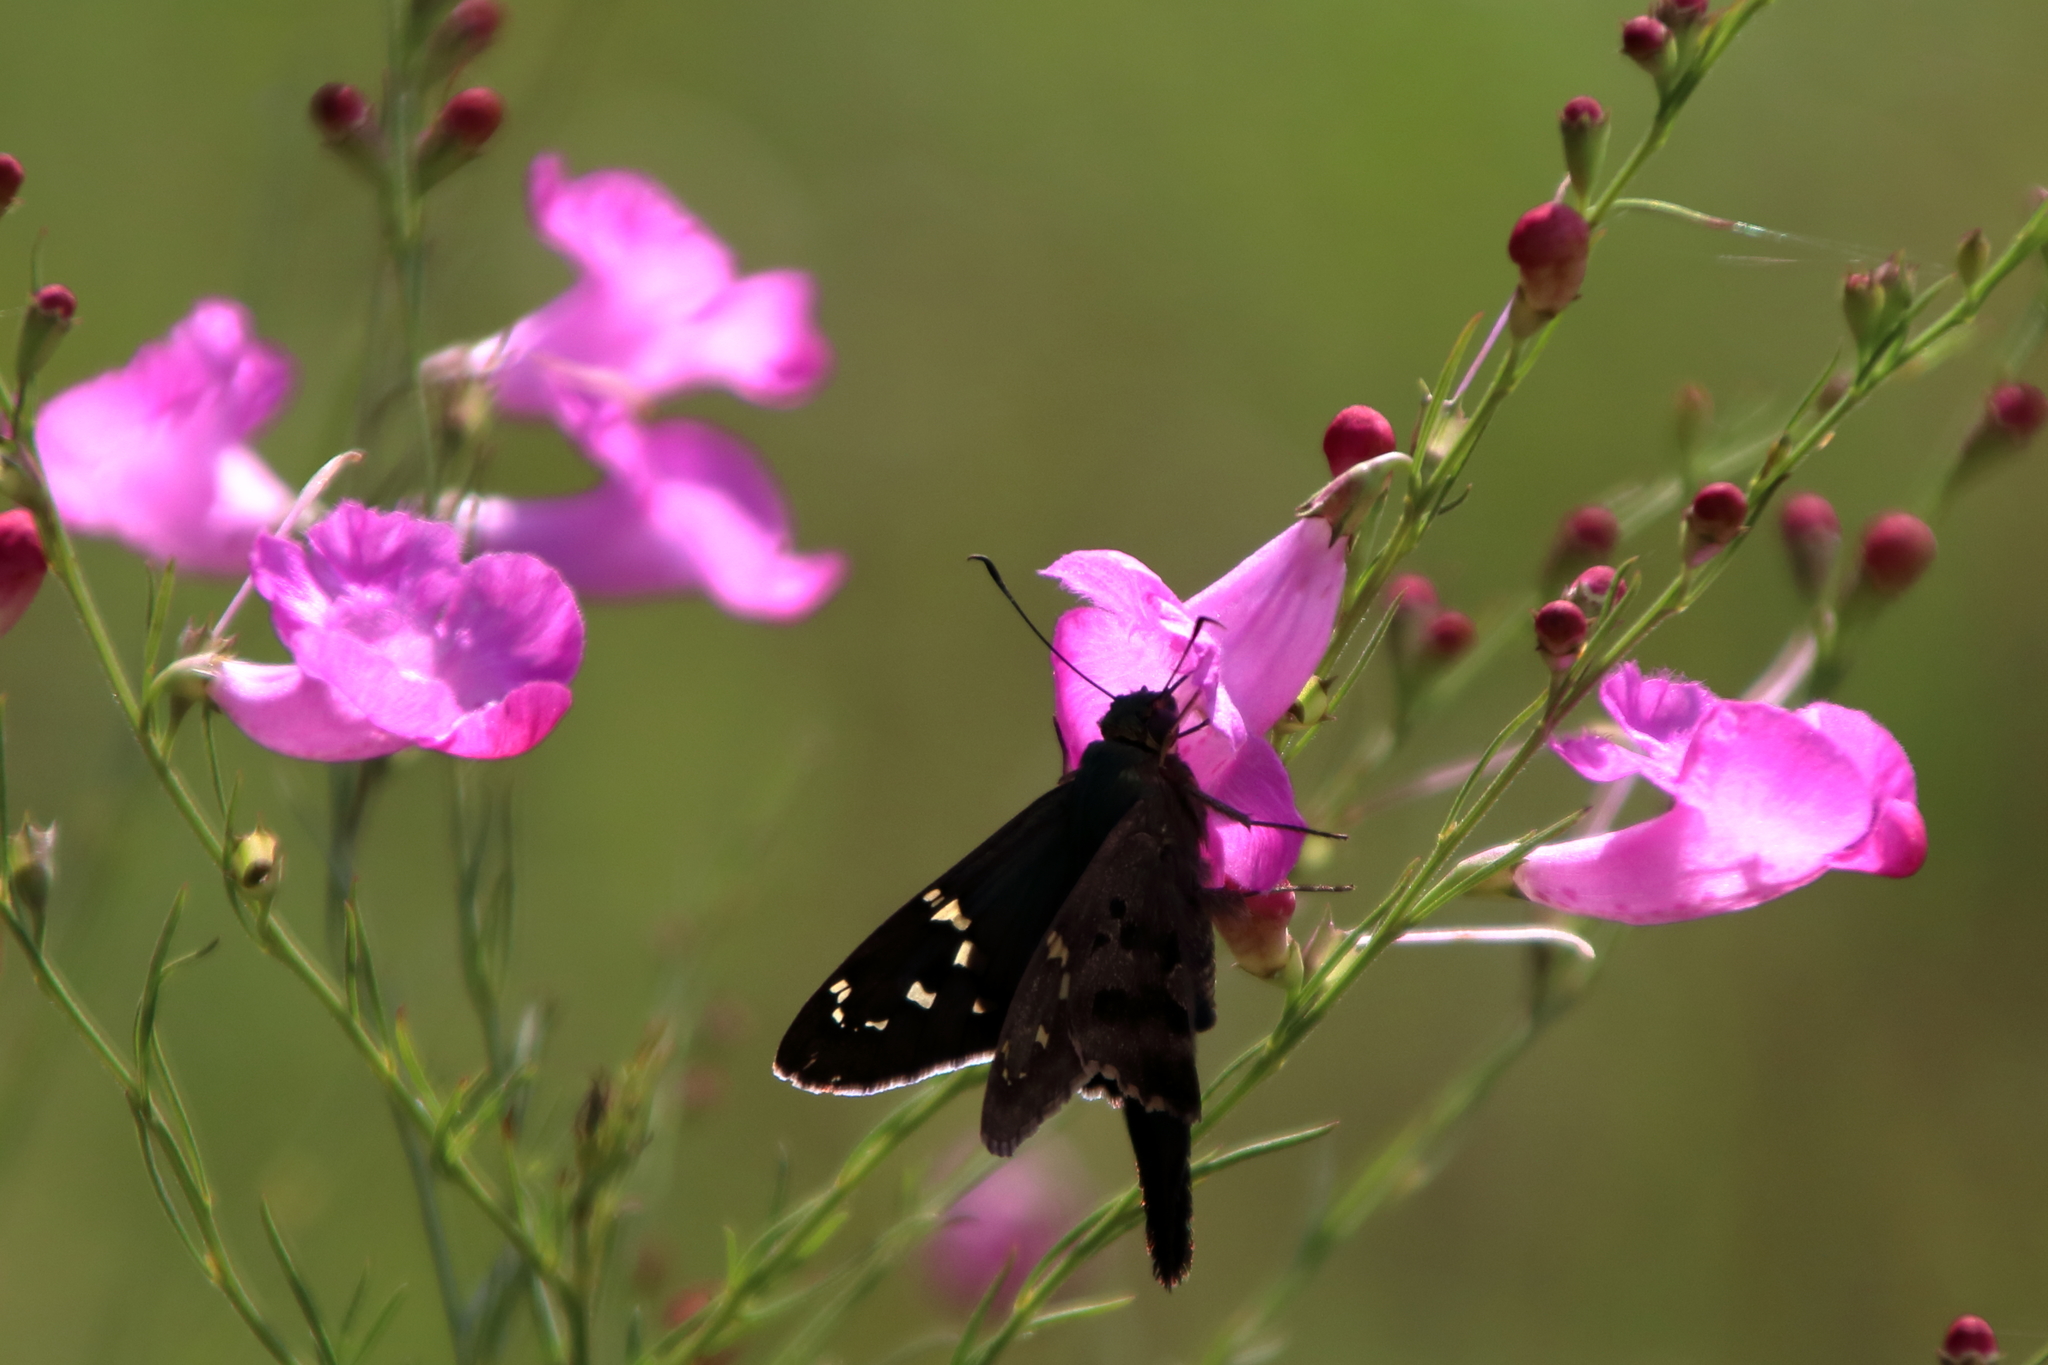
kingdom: Animalia
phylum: Arthropoda
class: Insecta
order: Lepidoptera
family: Hesperiidae
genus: Urbanus
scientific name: Urbanus proteus
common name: Long-tailed skipper
